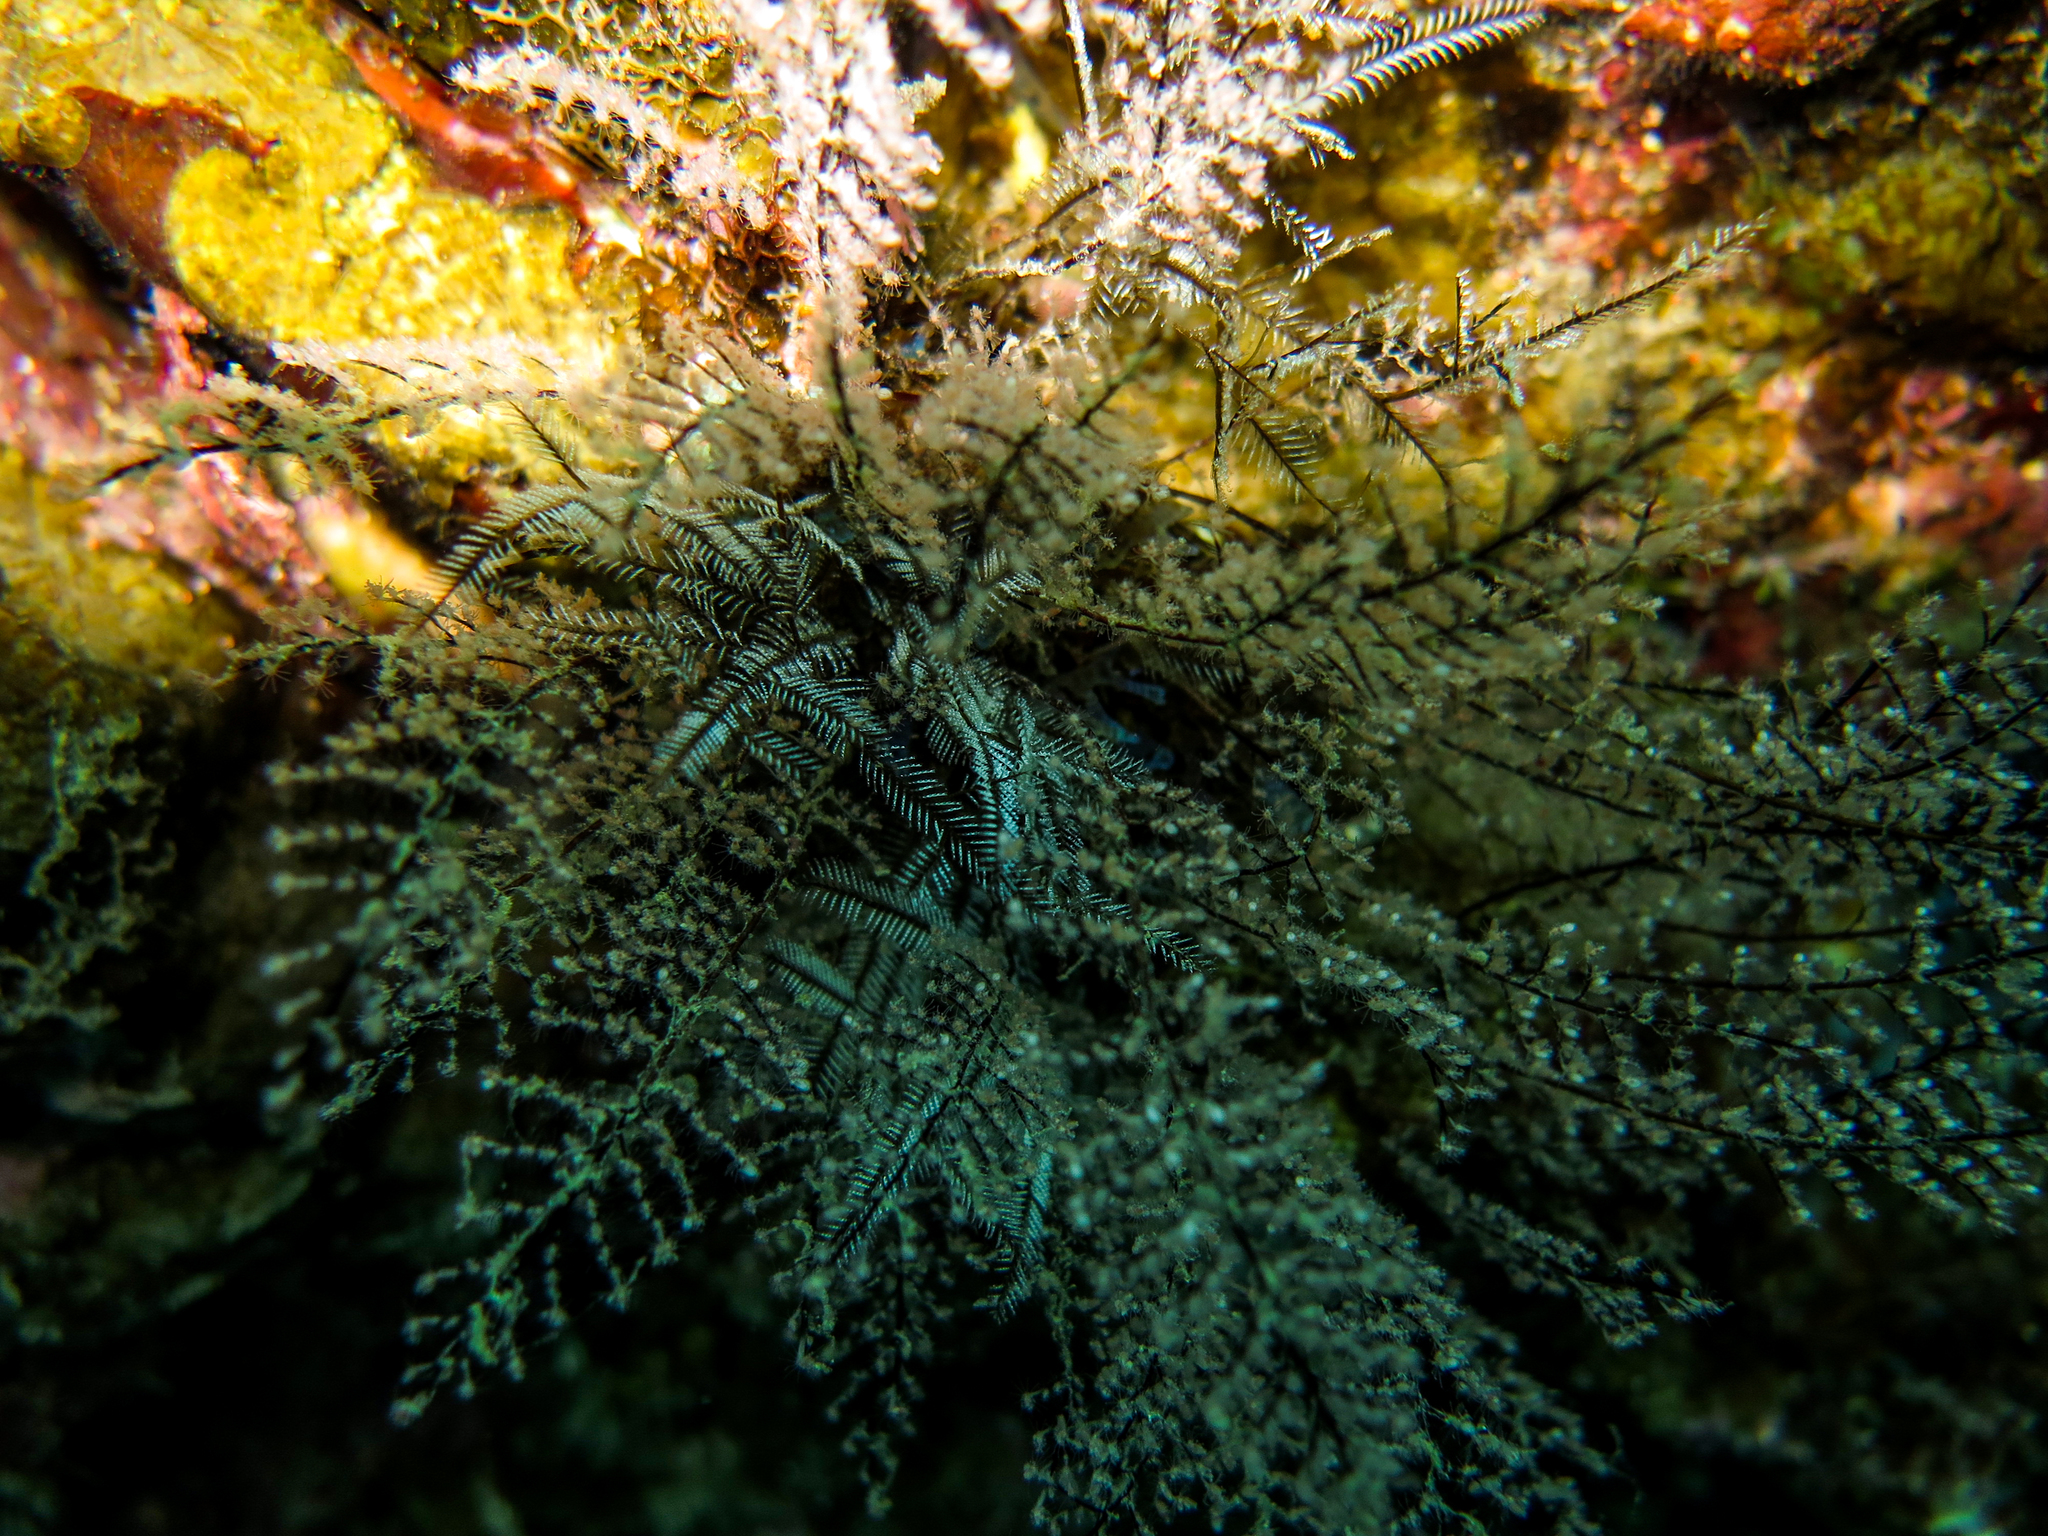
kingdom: Animalia
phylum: Cnidaria
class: Hydrozoa
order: Anthoathecata
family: Pennariidae
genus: Pennaria
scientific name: Pennaria disticha
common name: Feather hydroid
